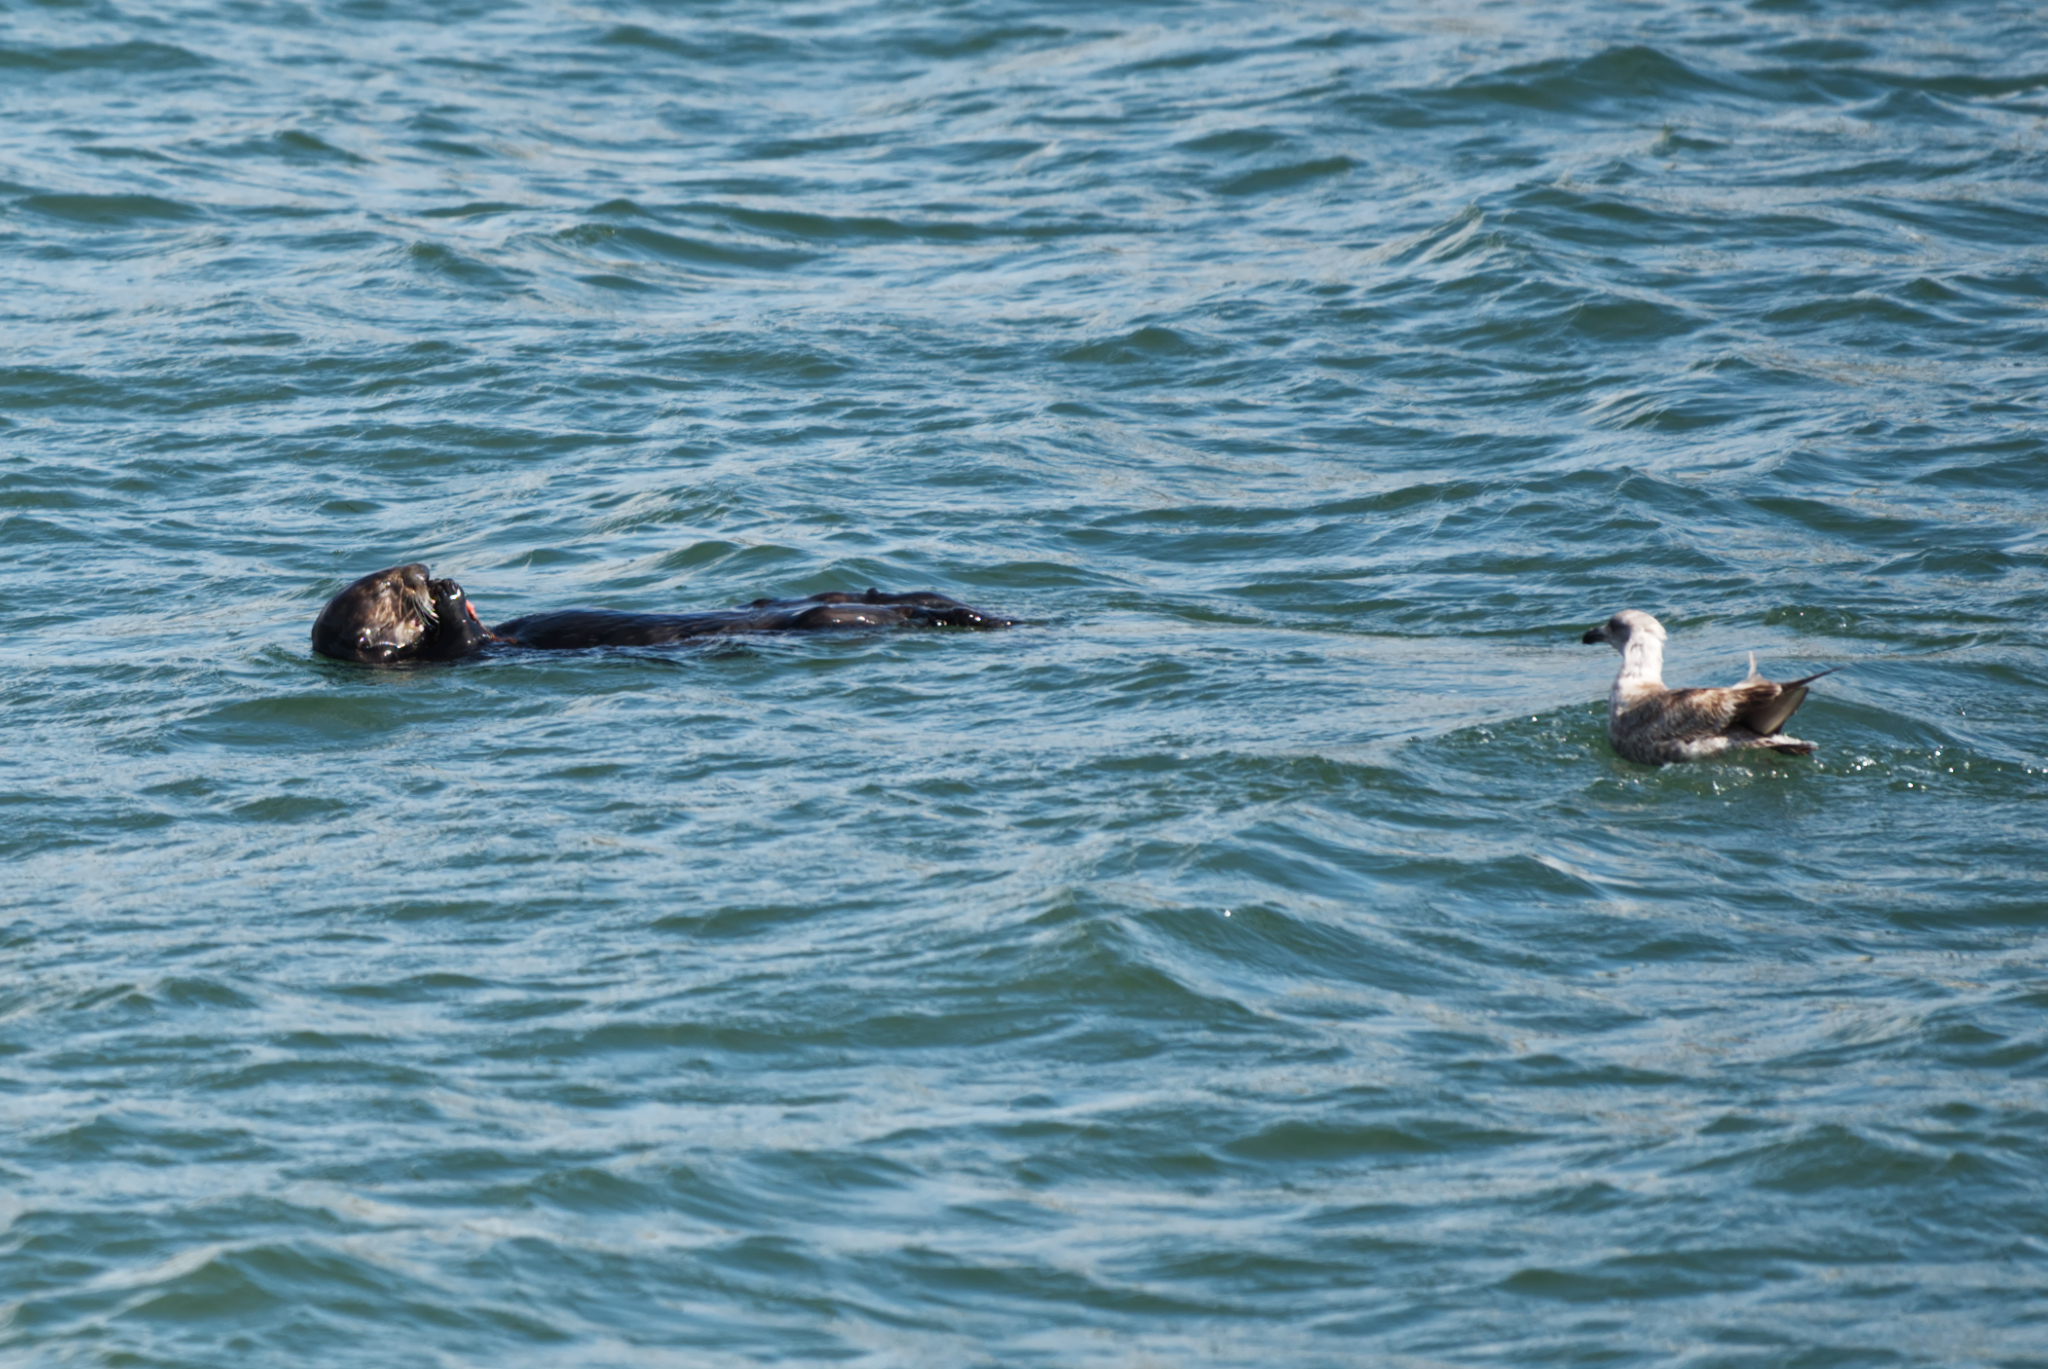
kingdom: Animalia
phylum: Chordata
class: Mammalia
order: Carnivora
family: Mustelidae
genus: Enhydra
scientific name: Enhydra lutris
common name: Sea otter
